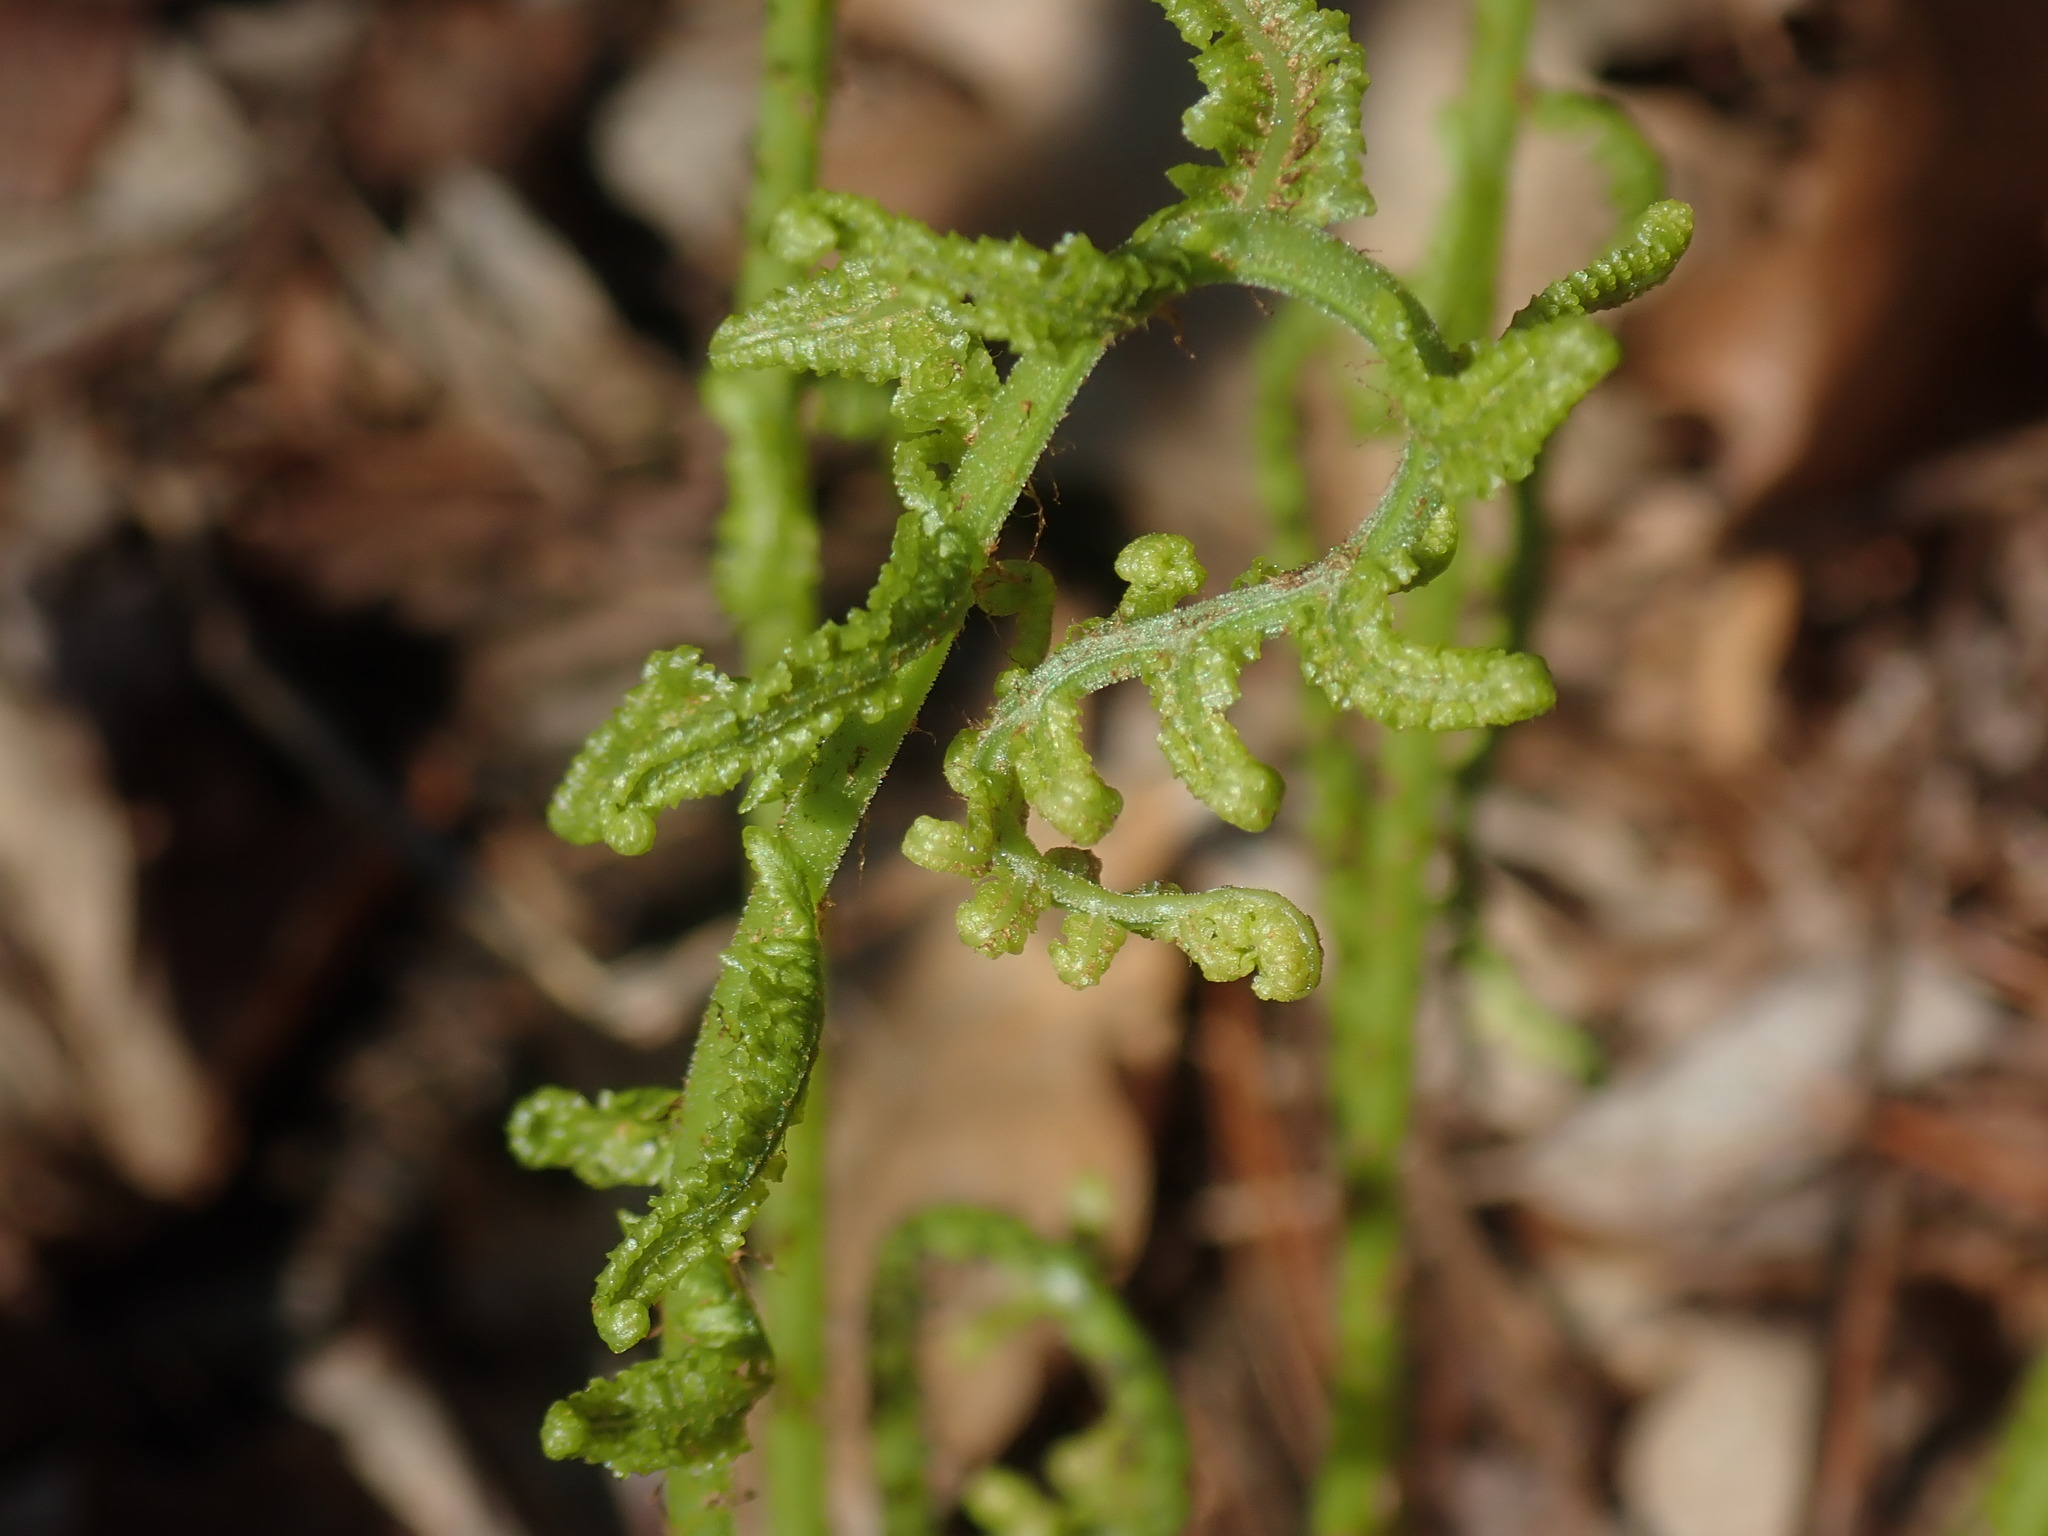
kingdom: Plantae
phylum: Tracheophyta
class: Polypodiopsida
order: Polypodiales
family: Athyriaceae
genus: Athyrium
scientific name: Athyrium angustum
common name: Northern lady fern
